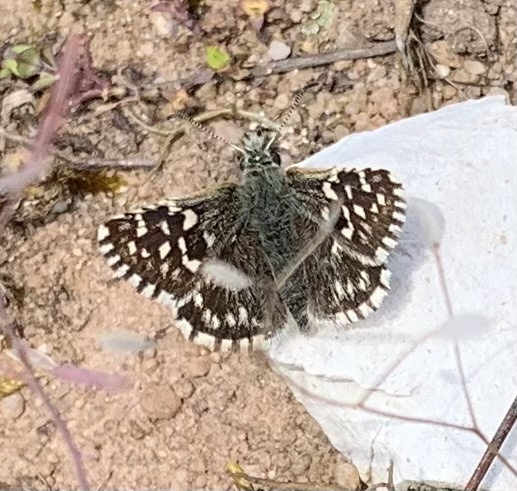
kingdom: Animalia
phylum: Arthropoda
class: Insecta
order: Lepidoptera
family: Hesperiidae
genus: Pyrgus
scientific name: Pyrgus malvae
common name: Grizzled skipper
